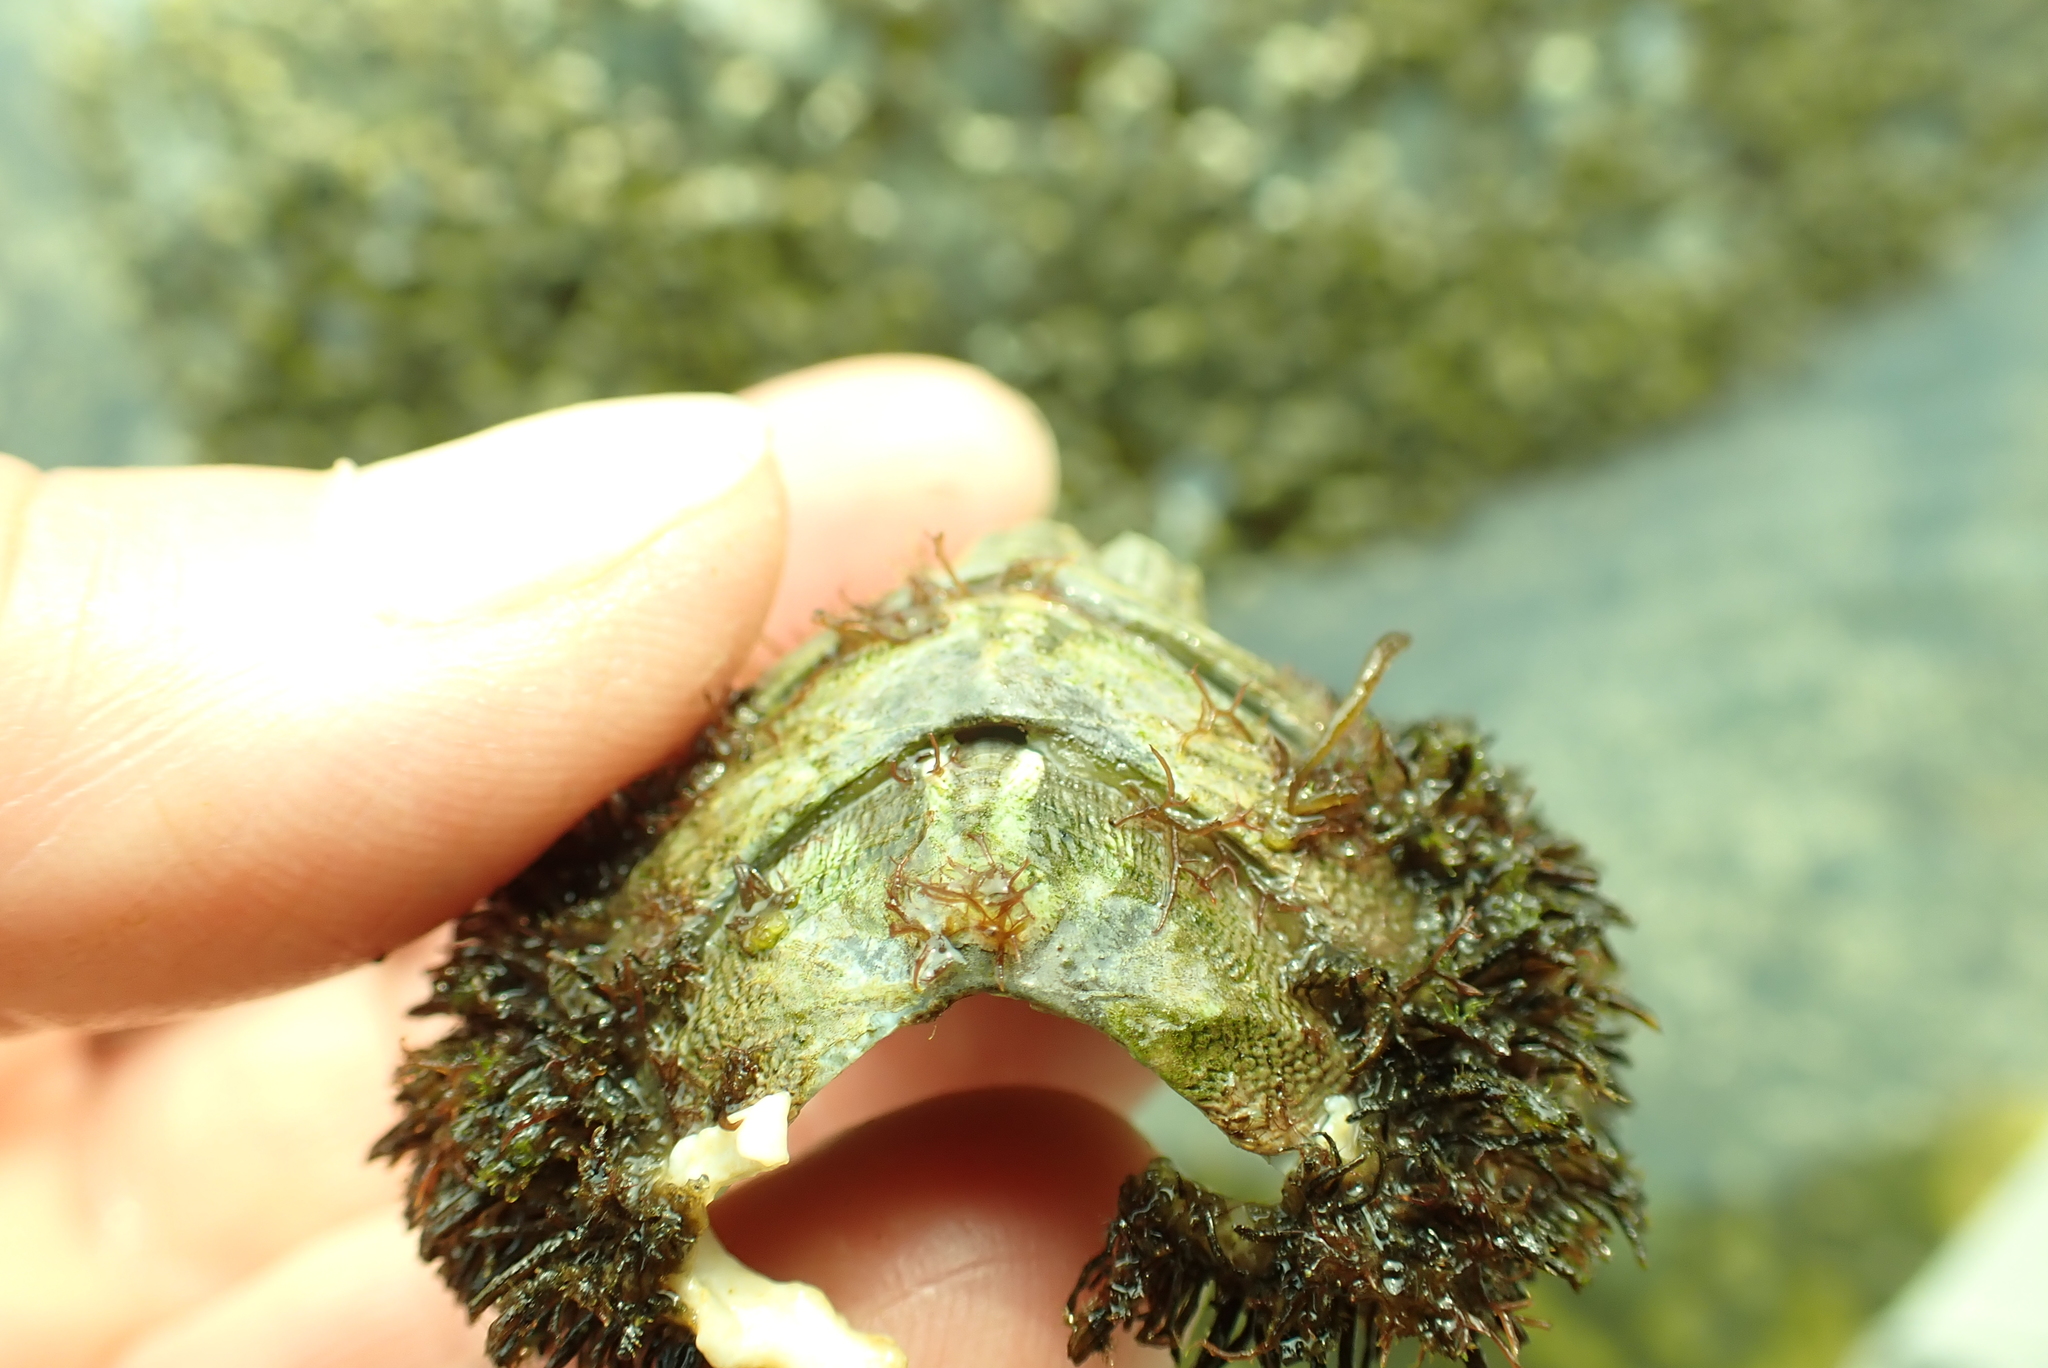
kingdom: Animalia
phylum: Mollusca
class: Polyplacophora
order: Chitonida
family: Mopaliidae
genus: Mopalia
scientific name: Mopalia muscosa
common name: Mossy chiton
